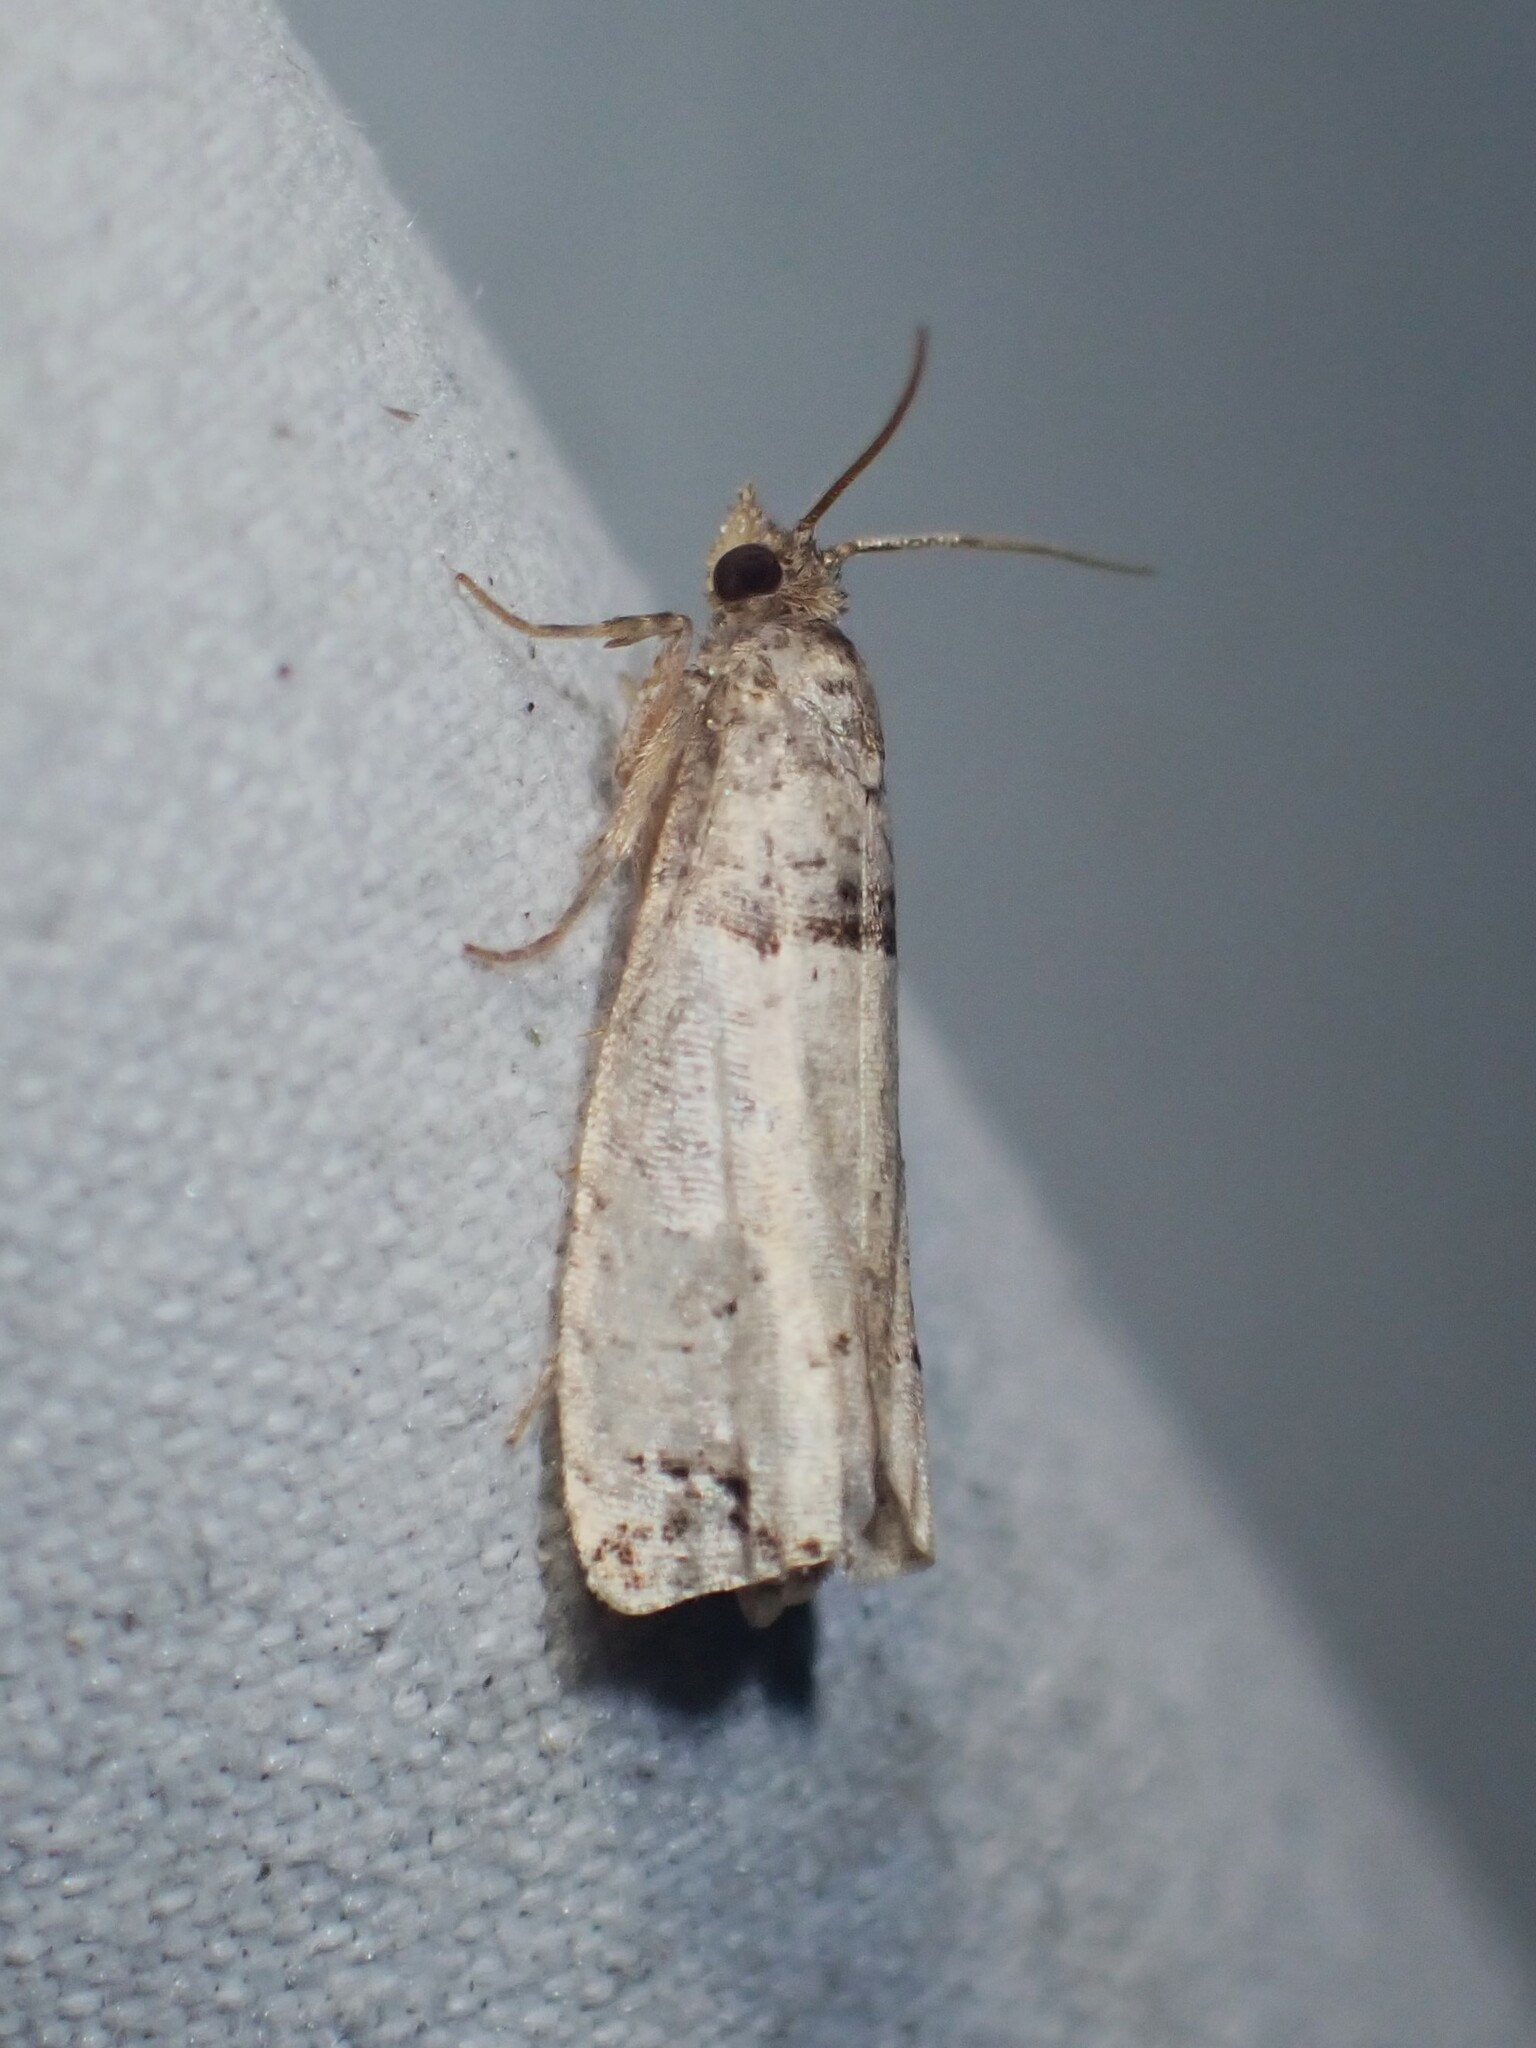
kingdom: Animalia
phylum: Arthropoda
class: Insecta
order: Lepidoptera
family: Tortricidae
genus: Notocelia
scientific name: Notocelia culminana
